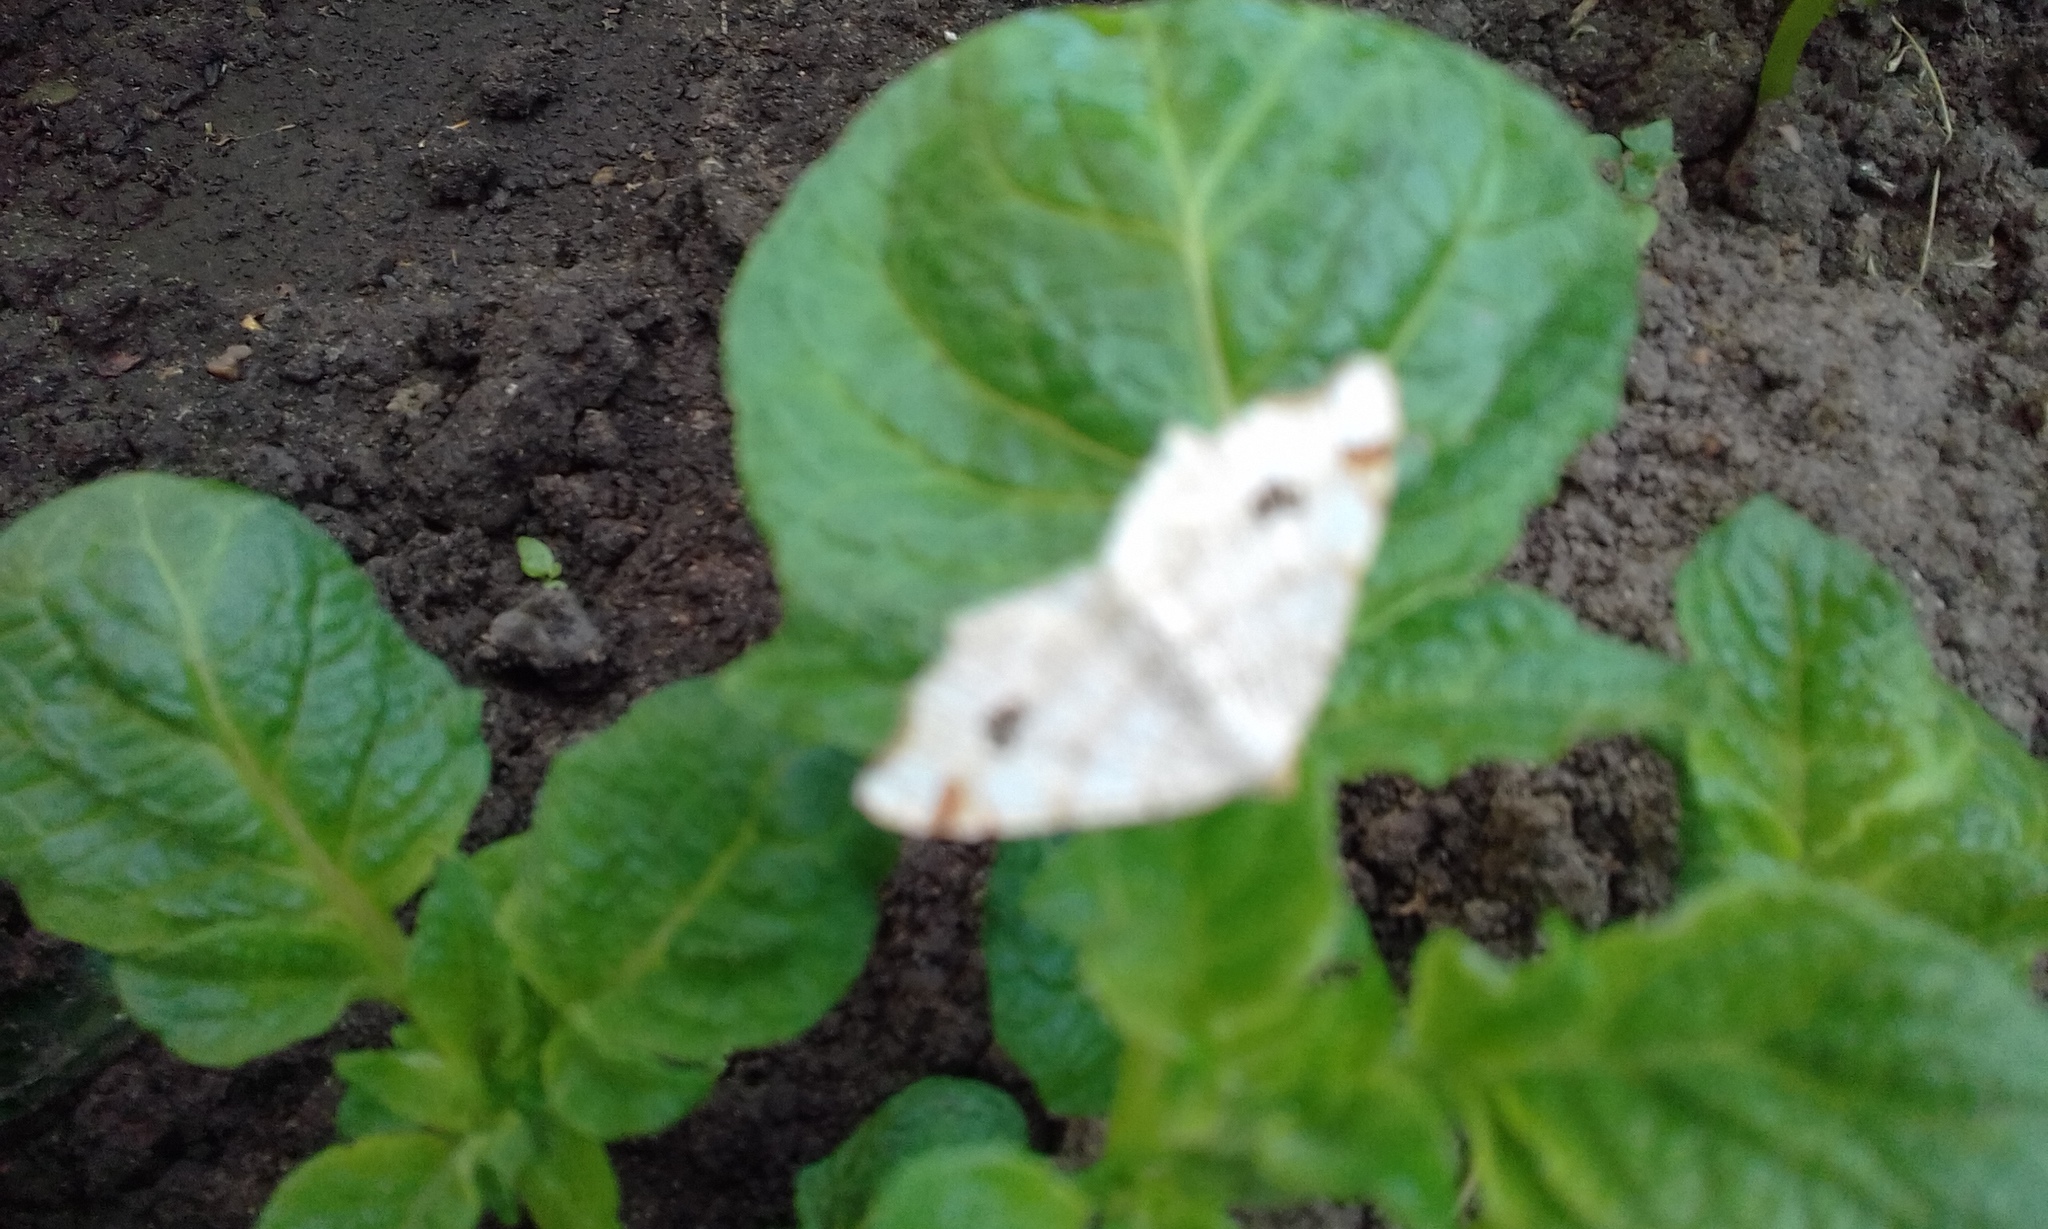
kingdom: Animalia
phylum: Arthropoda
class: Insecta
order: Lepidoptera
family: Geometridae
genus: Macaria
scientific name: Macaria notata
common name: Peacock moth
